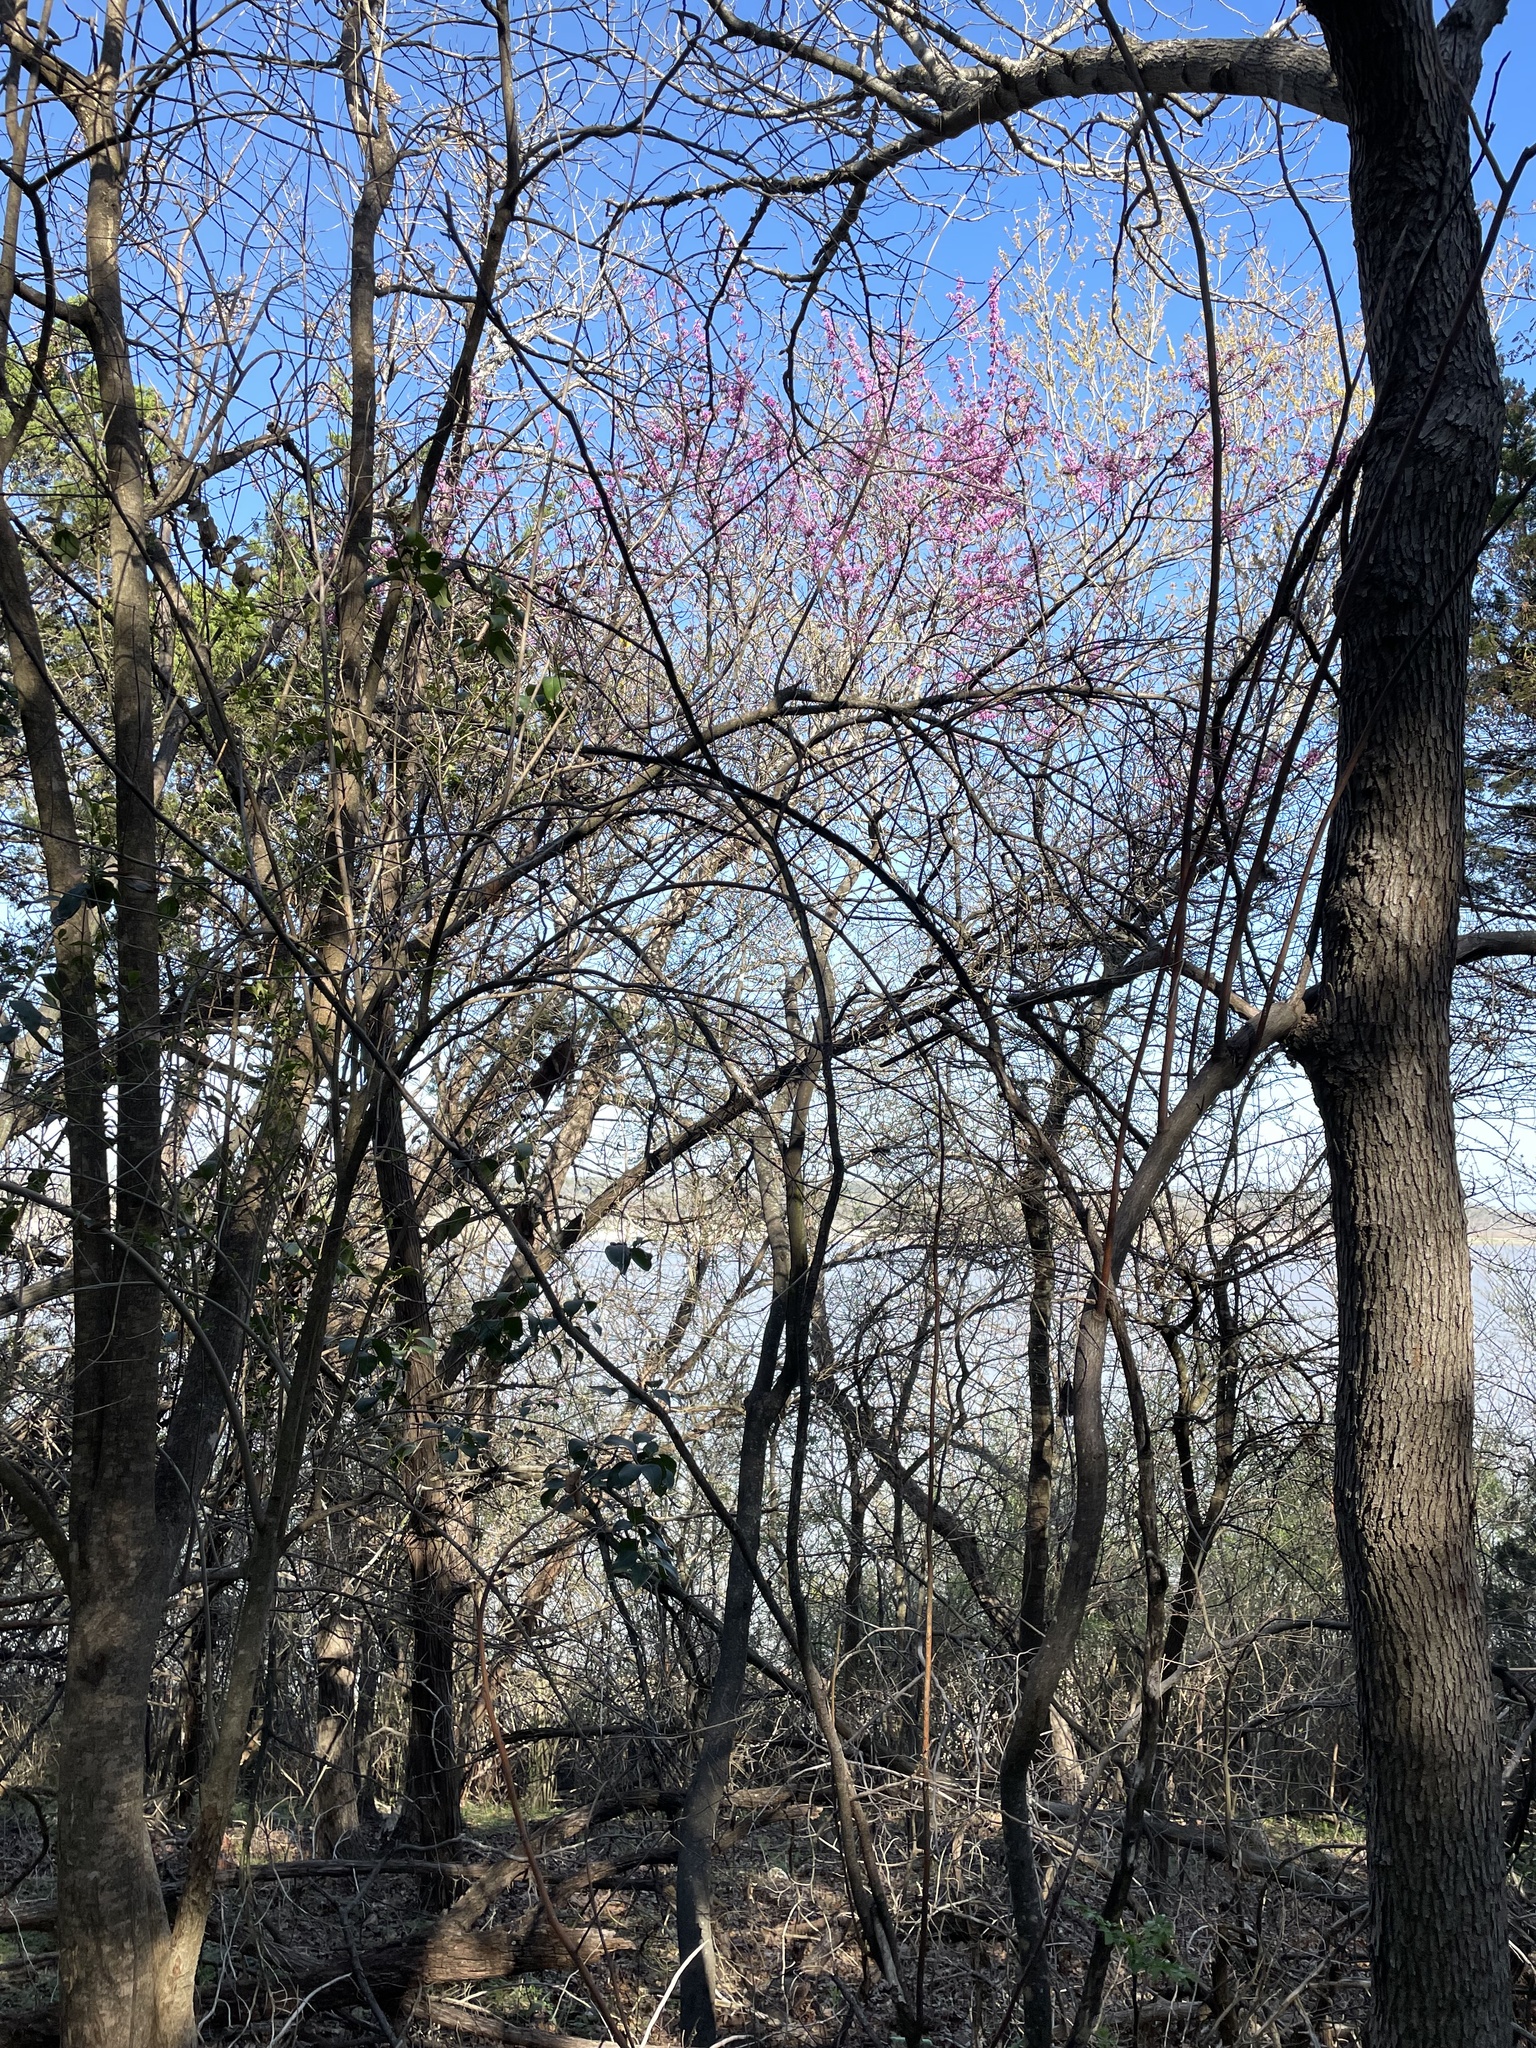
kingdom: Plantae
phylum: Tracheophyta
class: Magnoliopsida
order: Fabales
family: Fabaceae
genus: Cercis
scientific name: Cercis canadensis
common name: Eastern redbud
